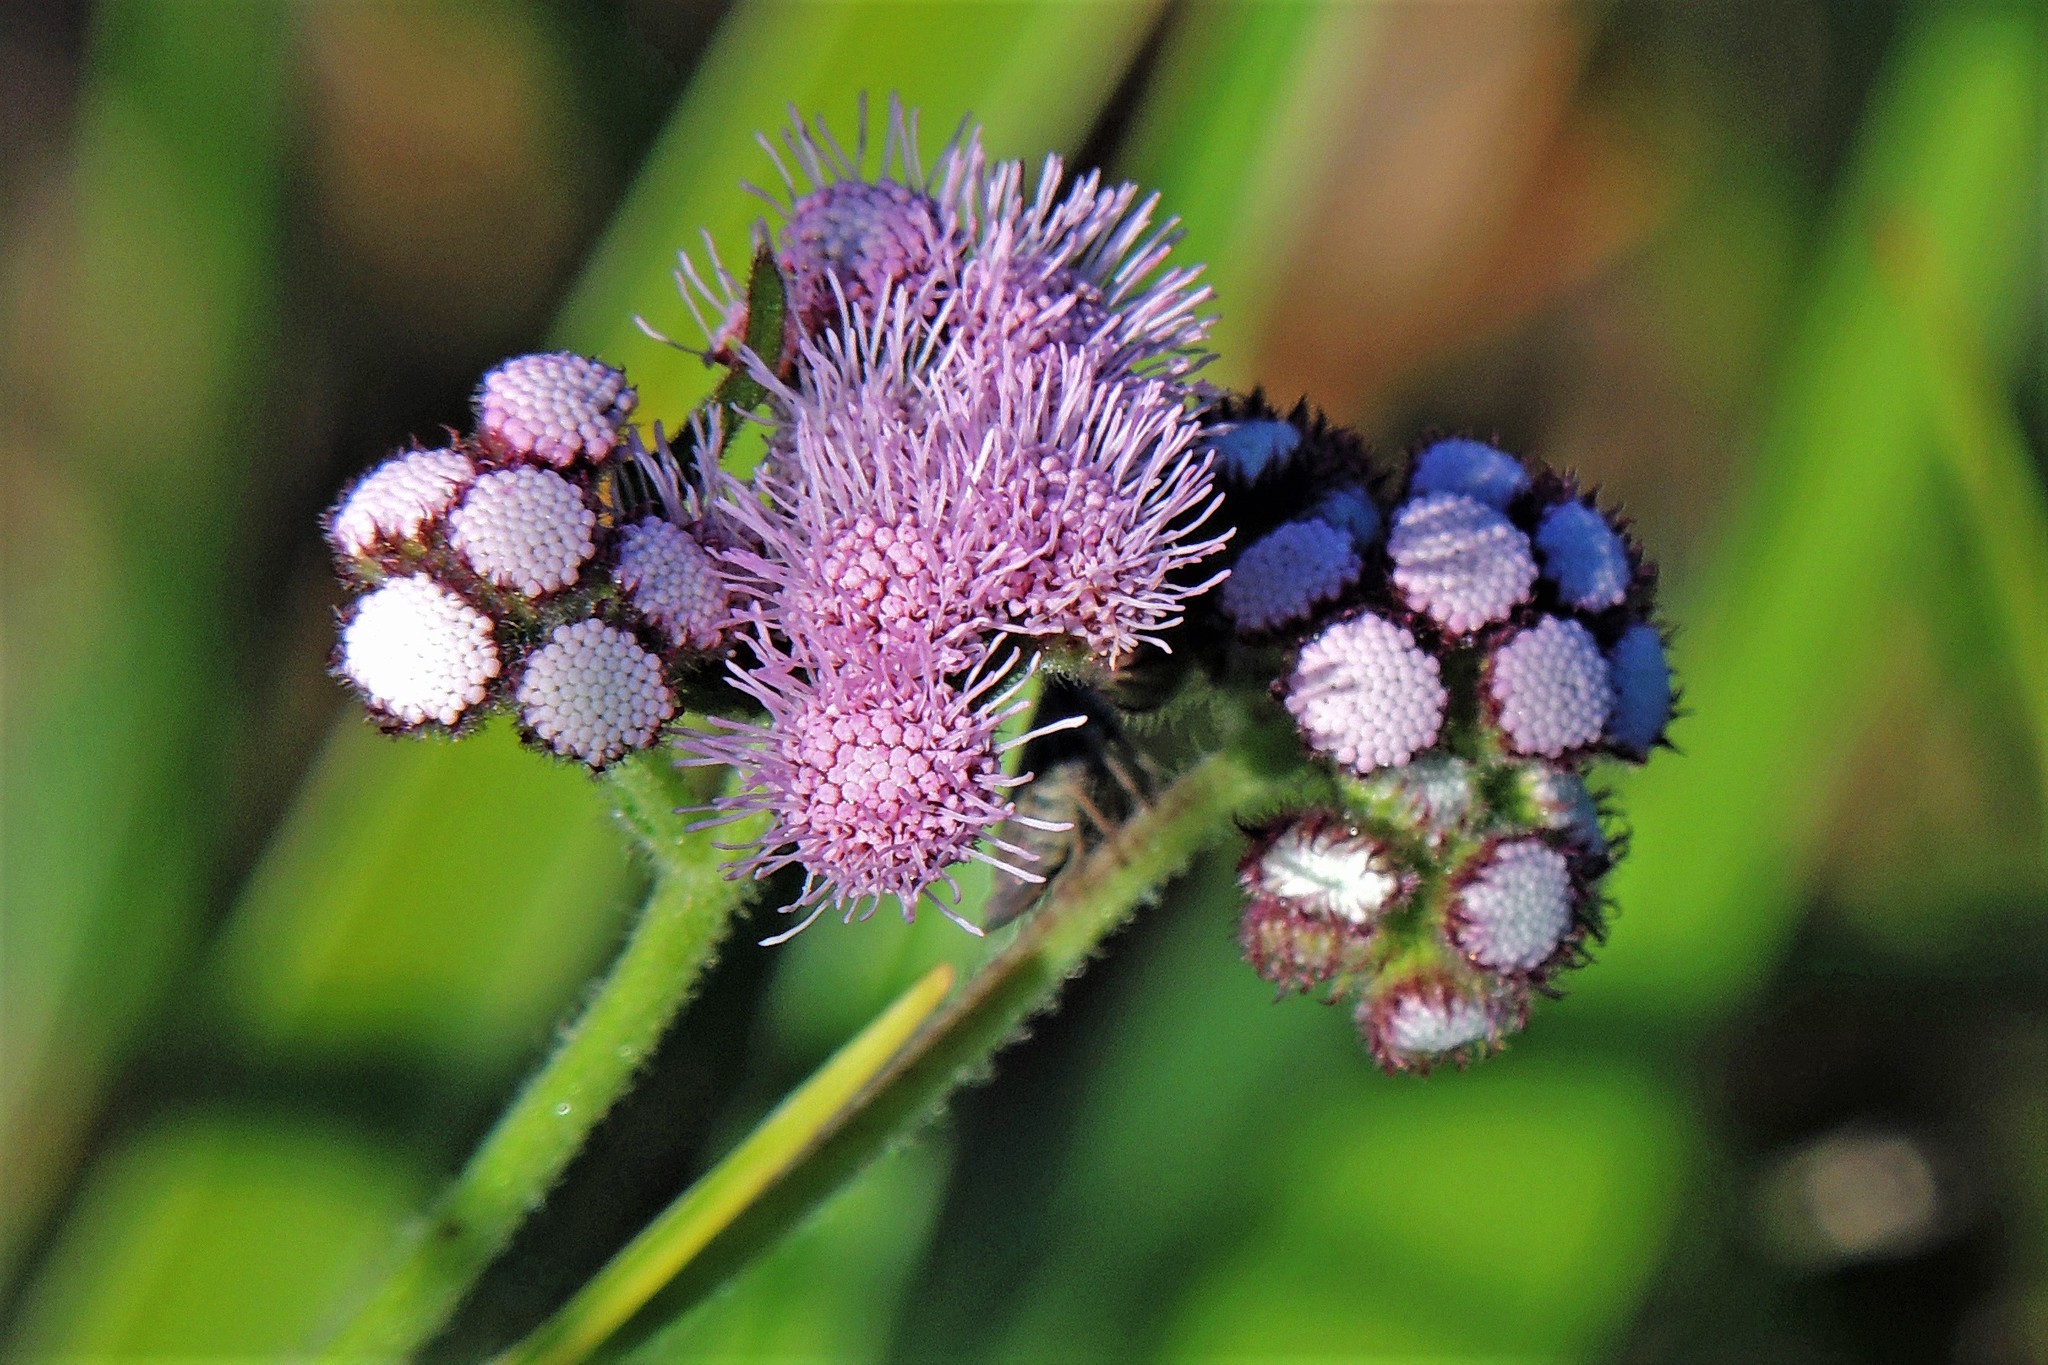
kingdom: Plantae
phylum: Tracheophyta
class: Magnoliopsida
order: Asterales
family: Asteraceae
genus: Barrosoa
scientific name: Barrosoa candolleana
